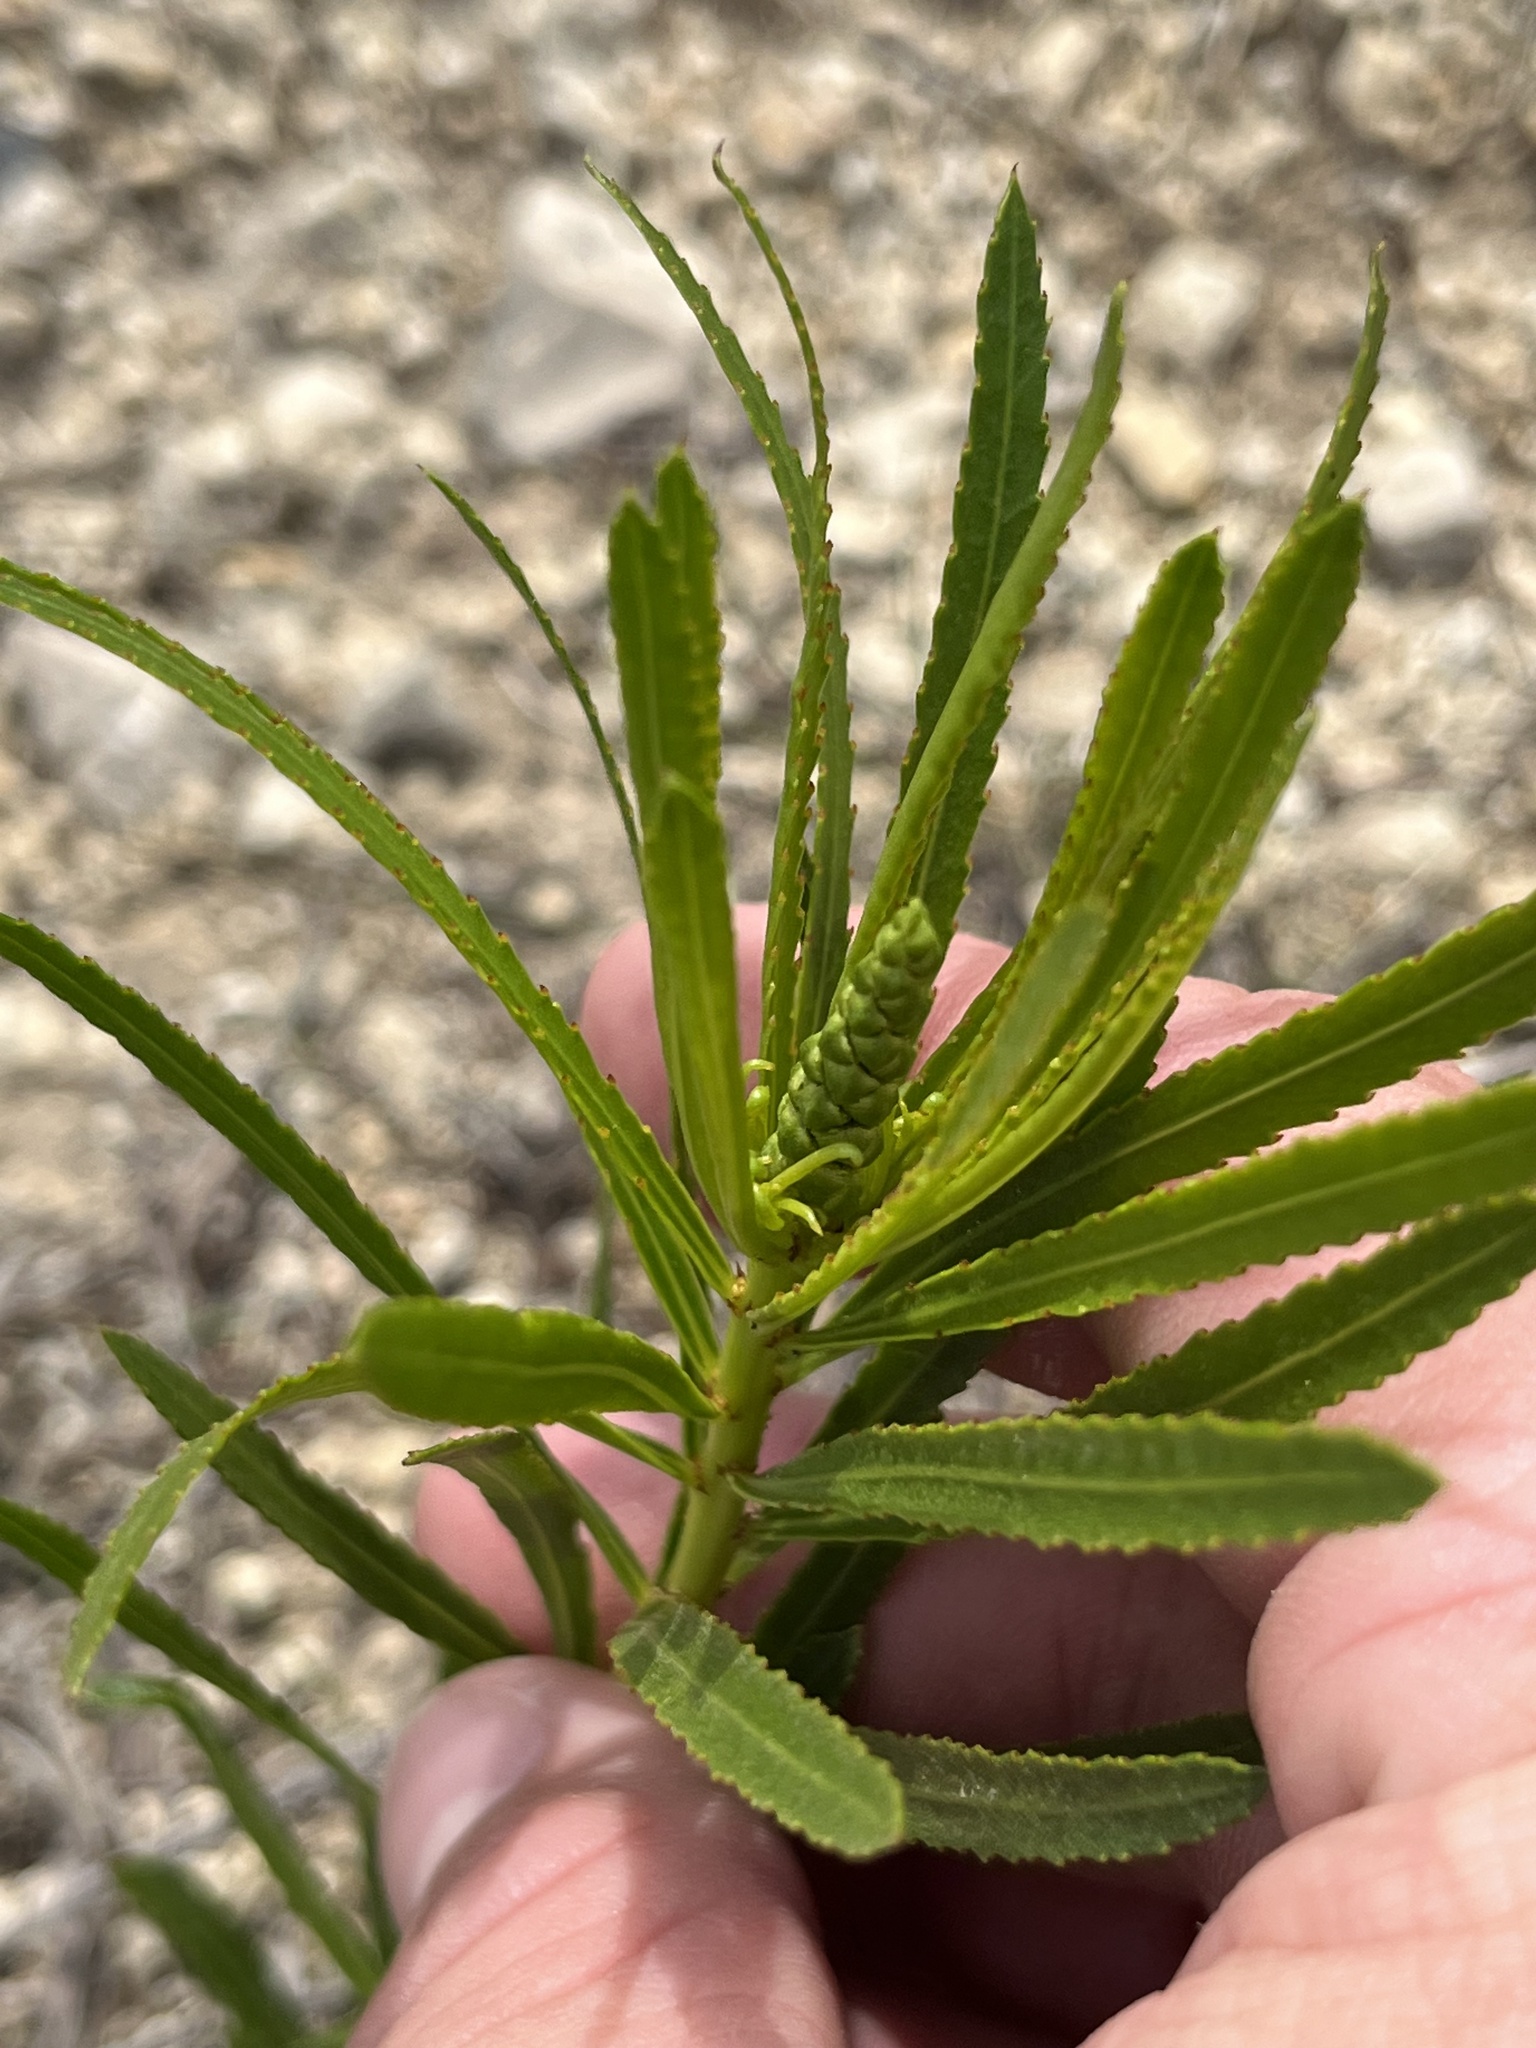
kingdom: Plantae
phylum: Tracheophyta
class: Magnoliopsida
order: Malpighiales
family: Euphorbiaceae
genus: Stillingia
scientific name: Stillingia texana
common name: Texas stillingia
